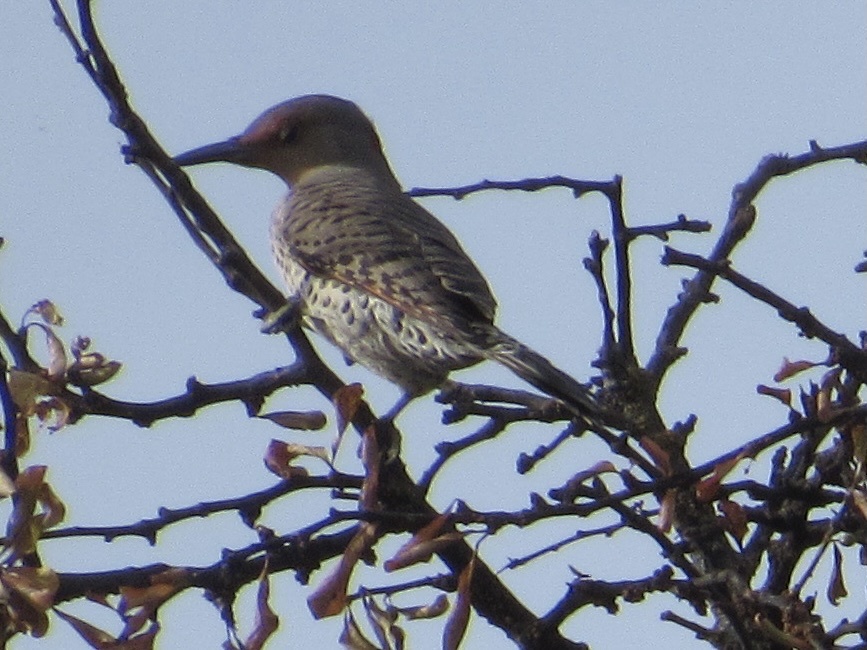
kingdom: Animalia
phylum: Chordata
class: Aves
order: Piciformes
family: Picidae
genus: Colaptes
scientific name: Colaptes auratus
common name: Northern flicker
